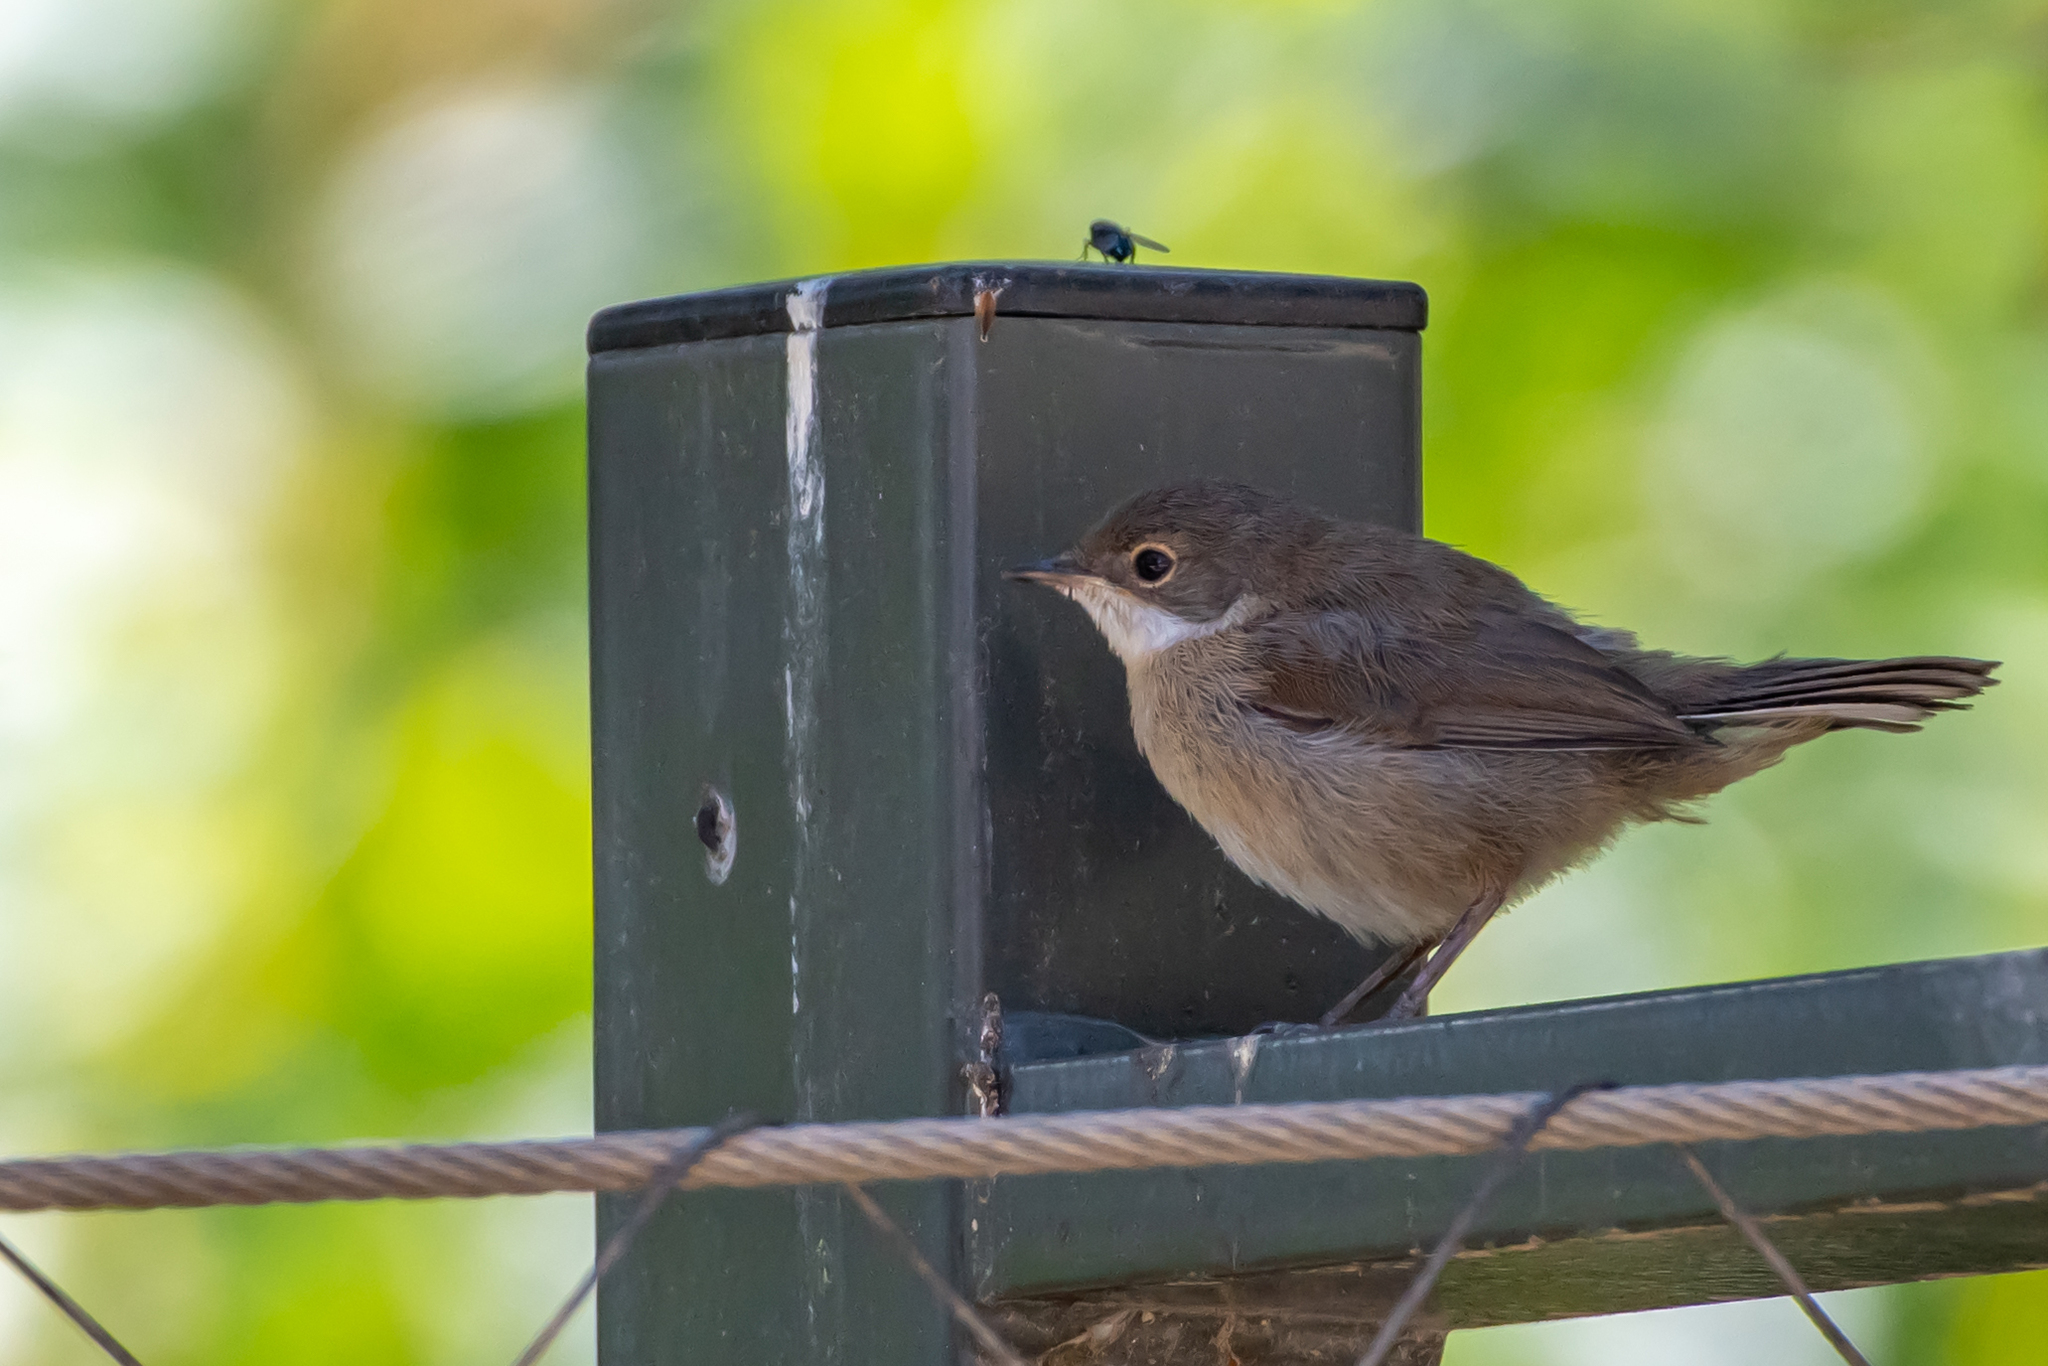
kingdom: Animalia
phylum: Chordata
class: Aves
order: Passeriformes
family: Sylviidae
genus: Curruca
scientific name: Curruca melanocephala
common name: Sardinian warbler
